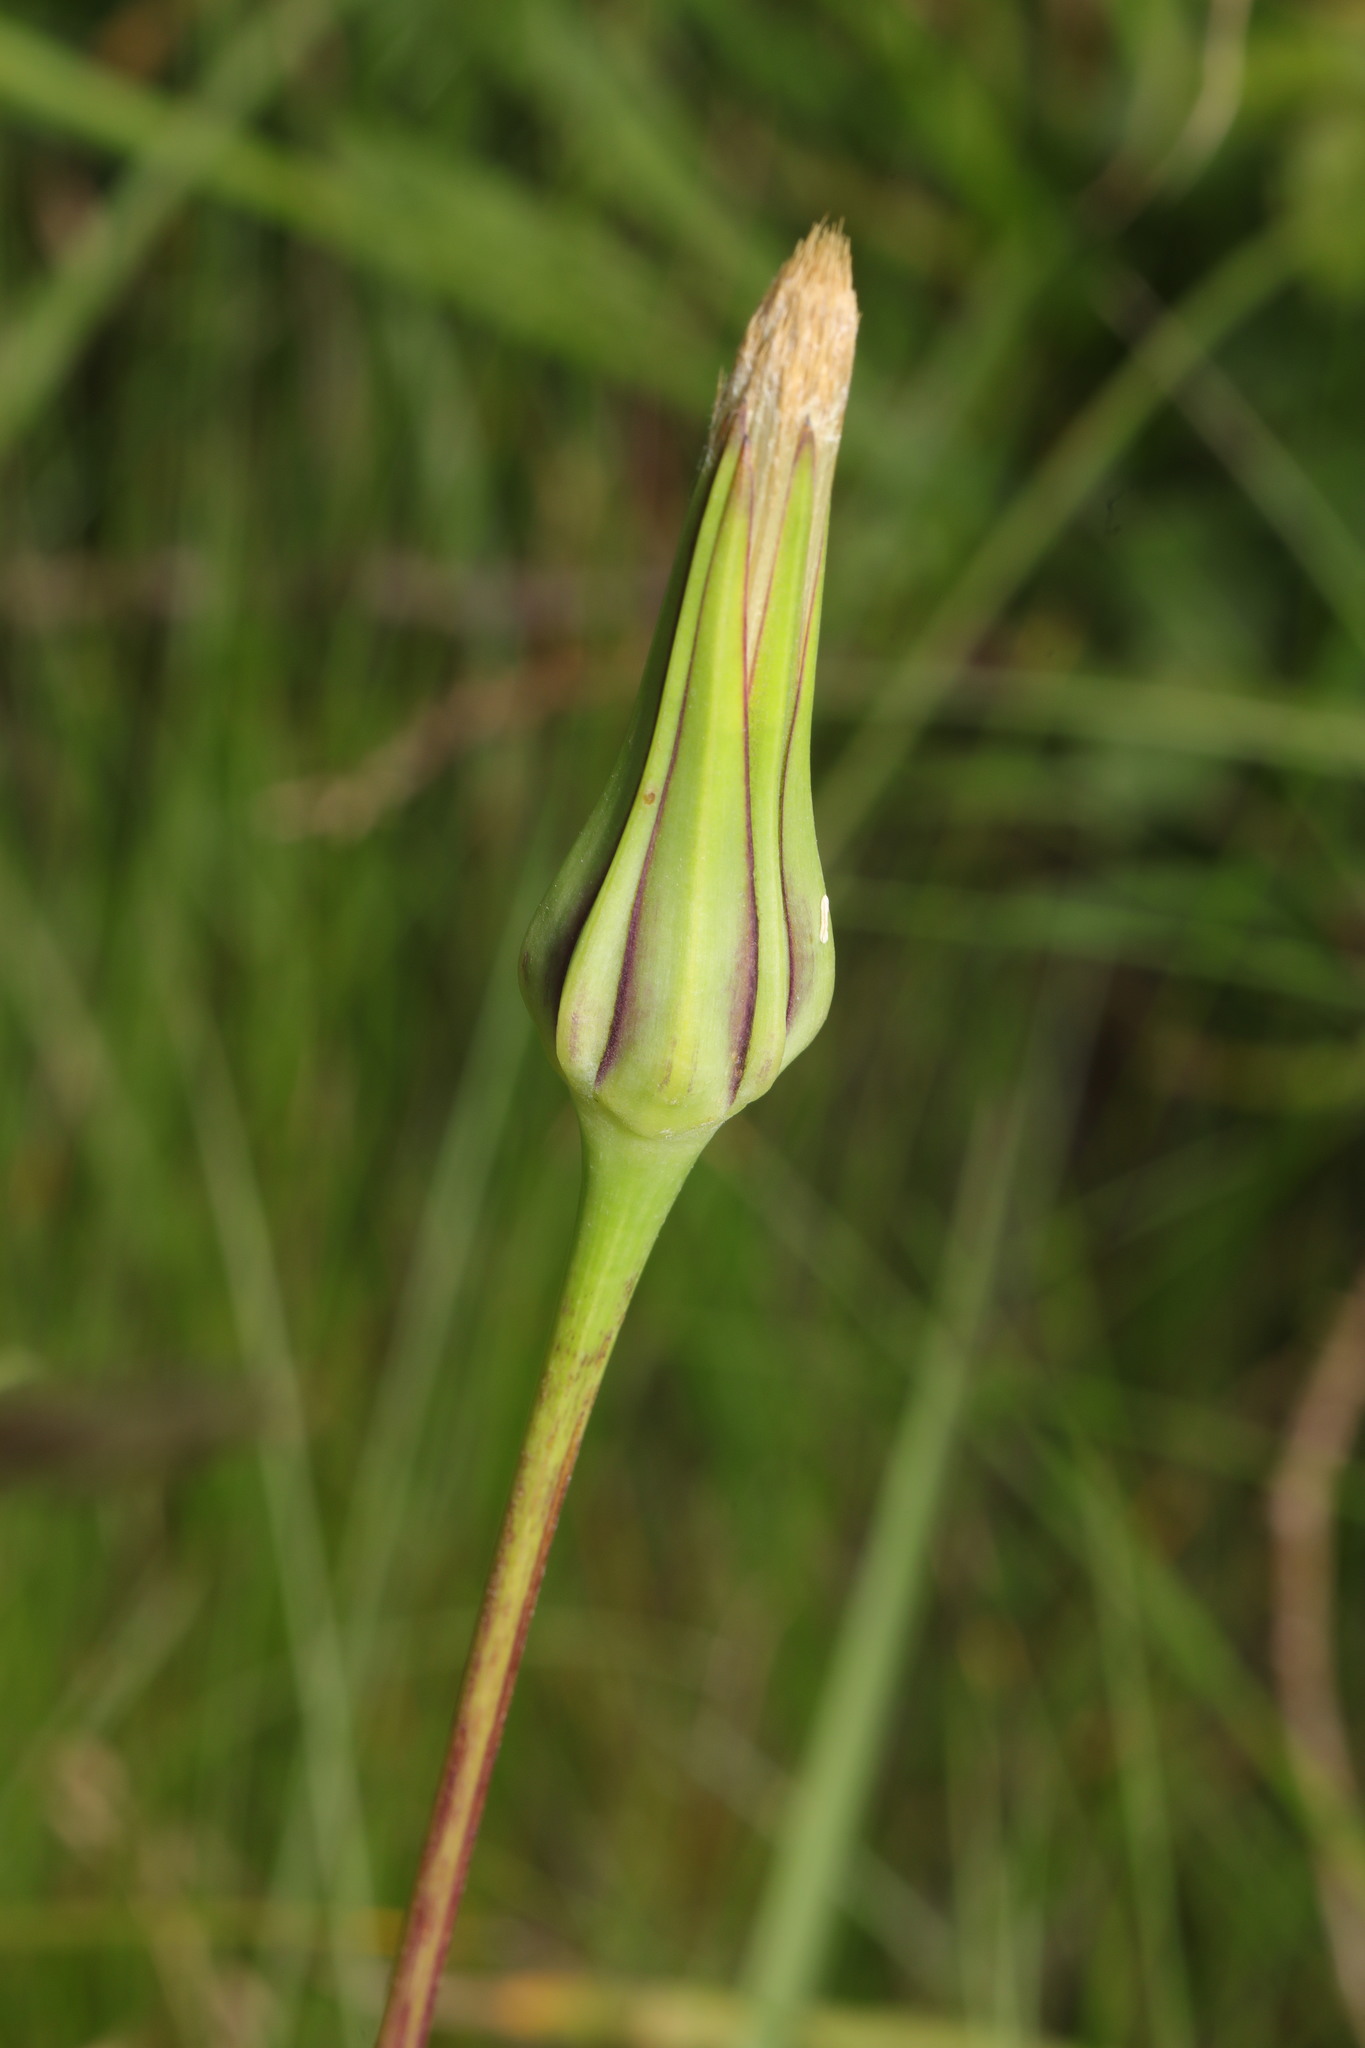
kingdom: Plantae
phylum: Tracheophyta
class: Magnoliopsida
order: Asterales
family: Asteraceae
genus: Tragopogon
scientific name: Tragopogon pratensis
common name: Goat's-beard
